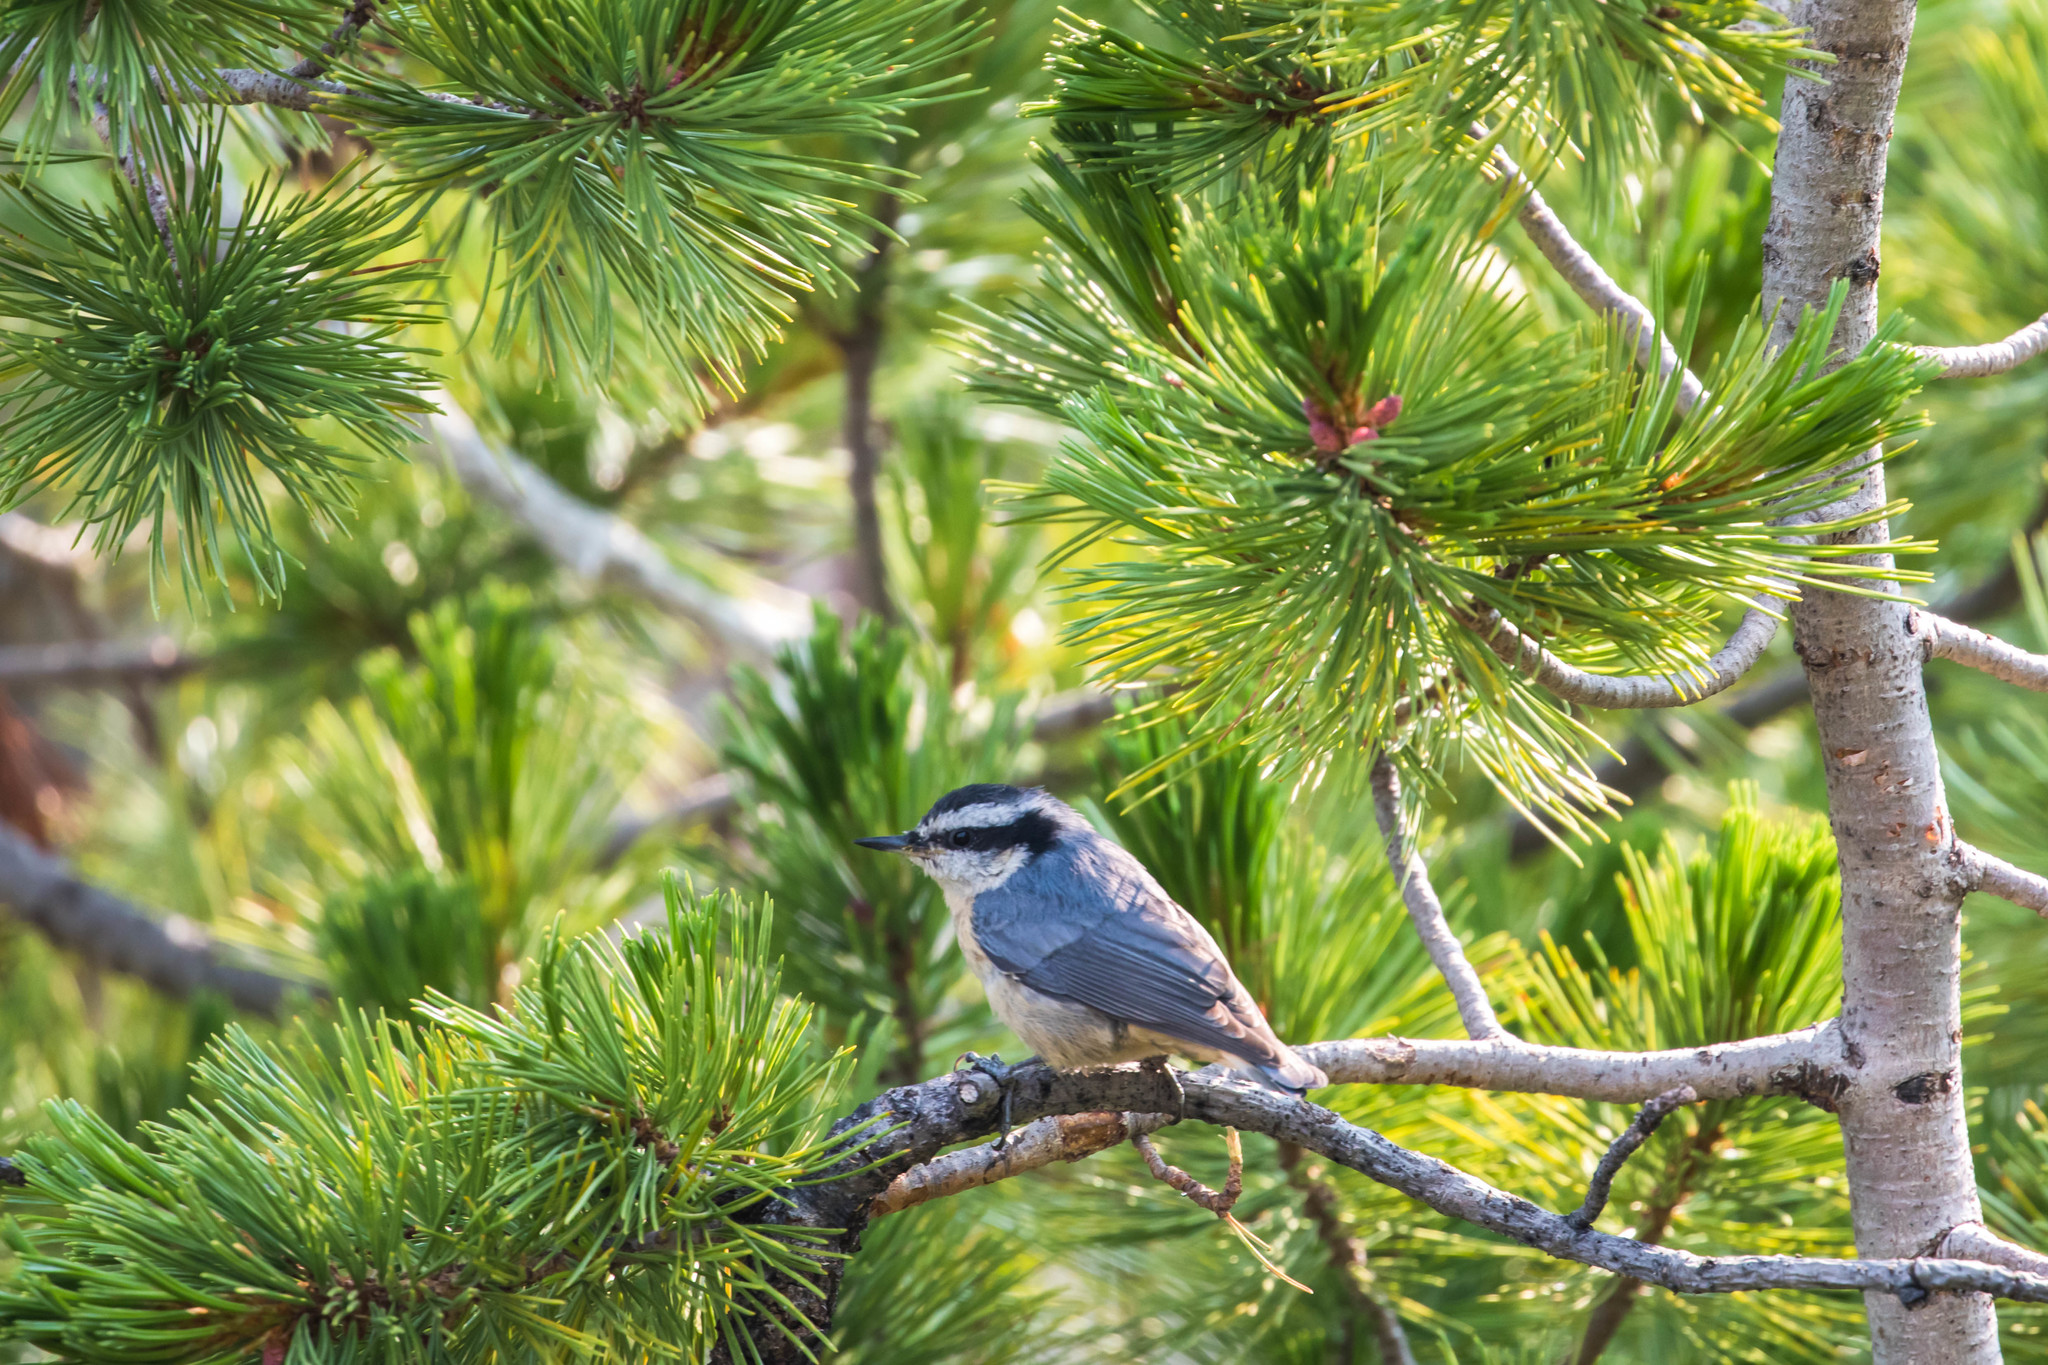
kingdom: Animalia
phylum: Chordata
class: Aves
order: Passeriformes
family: Sittidae
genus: Sitta
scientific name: Sitta canadensis
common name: Red-breasted nuthatch
